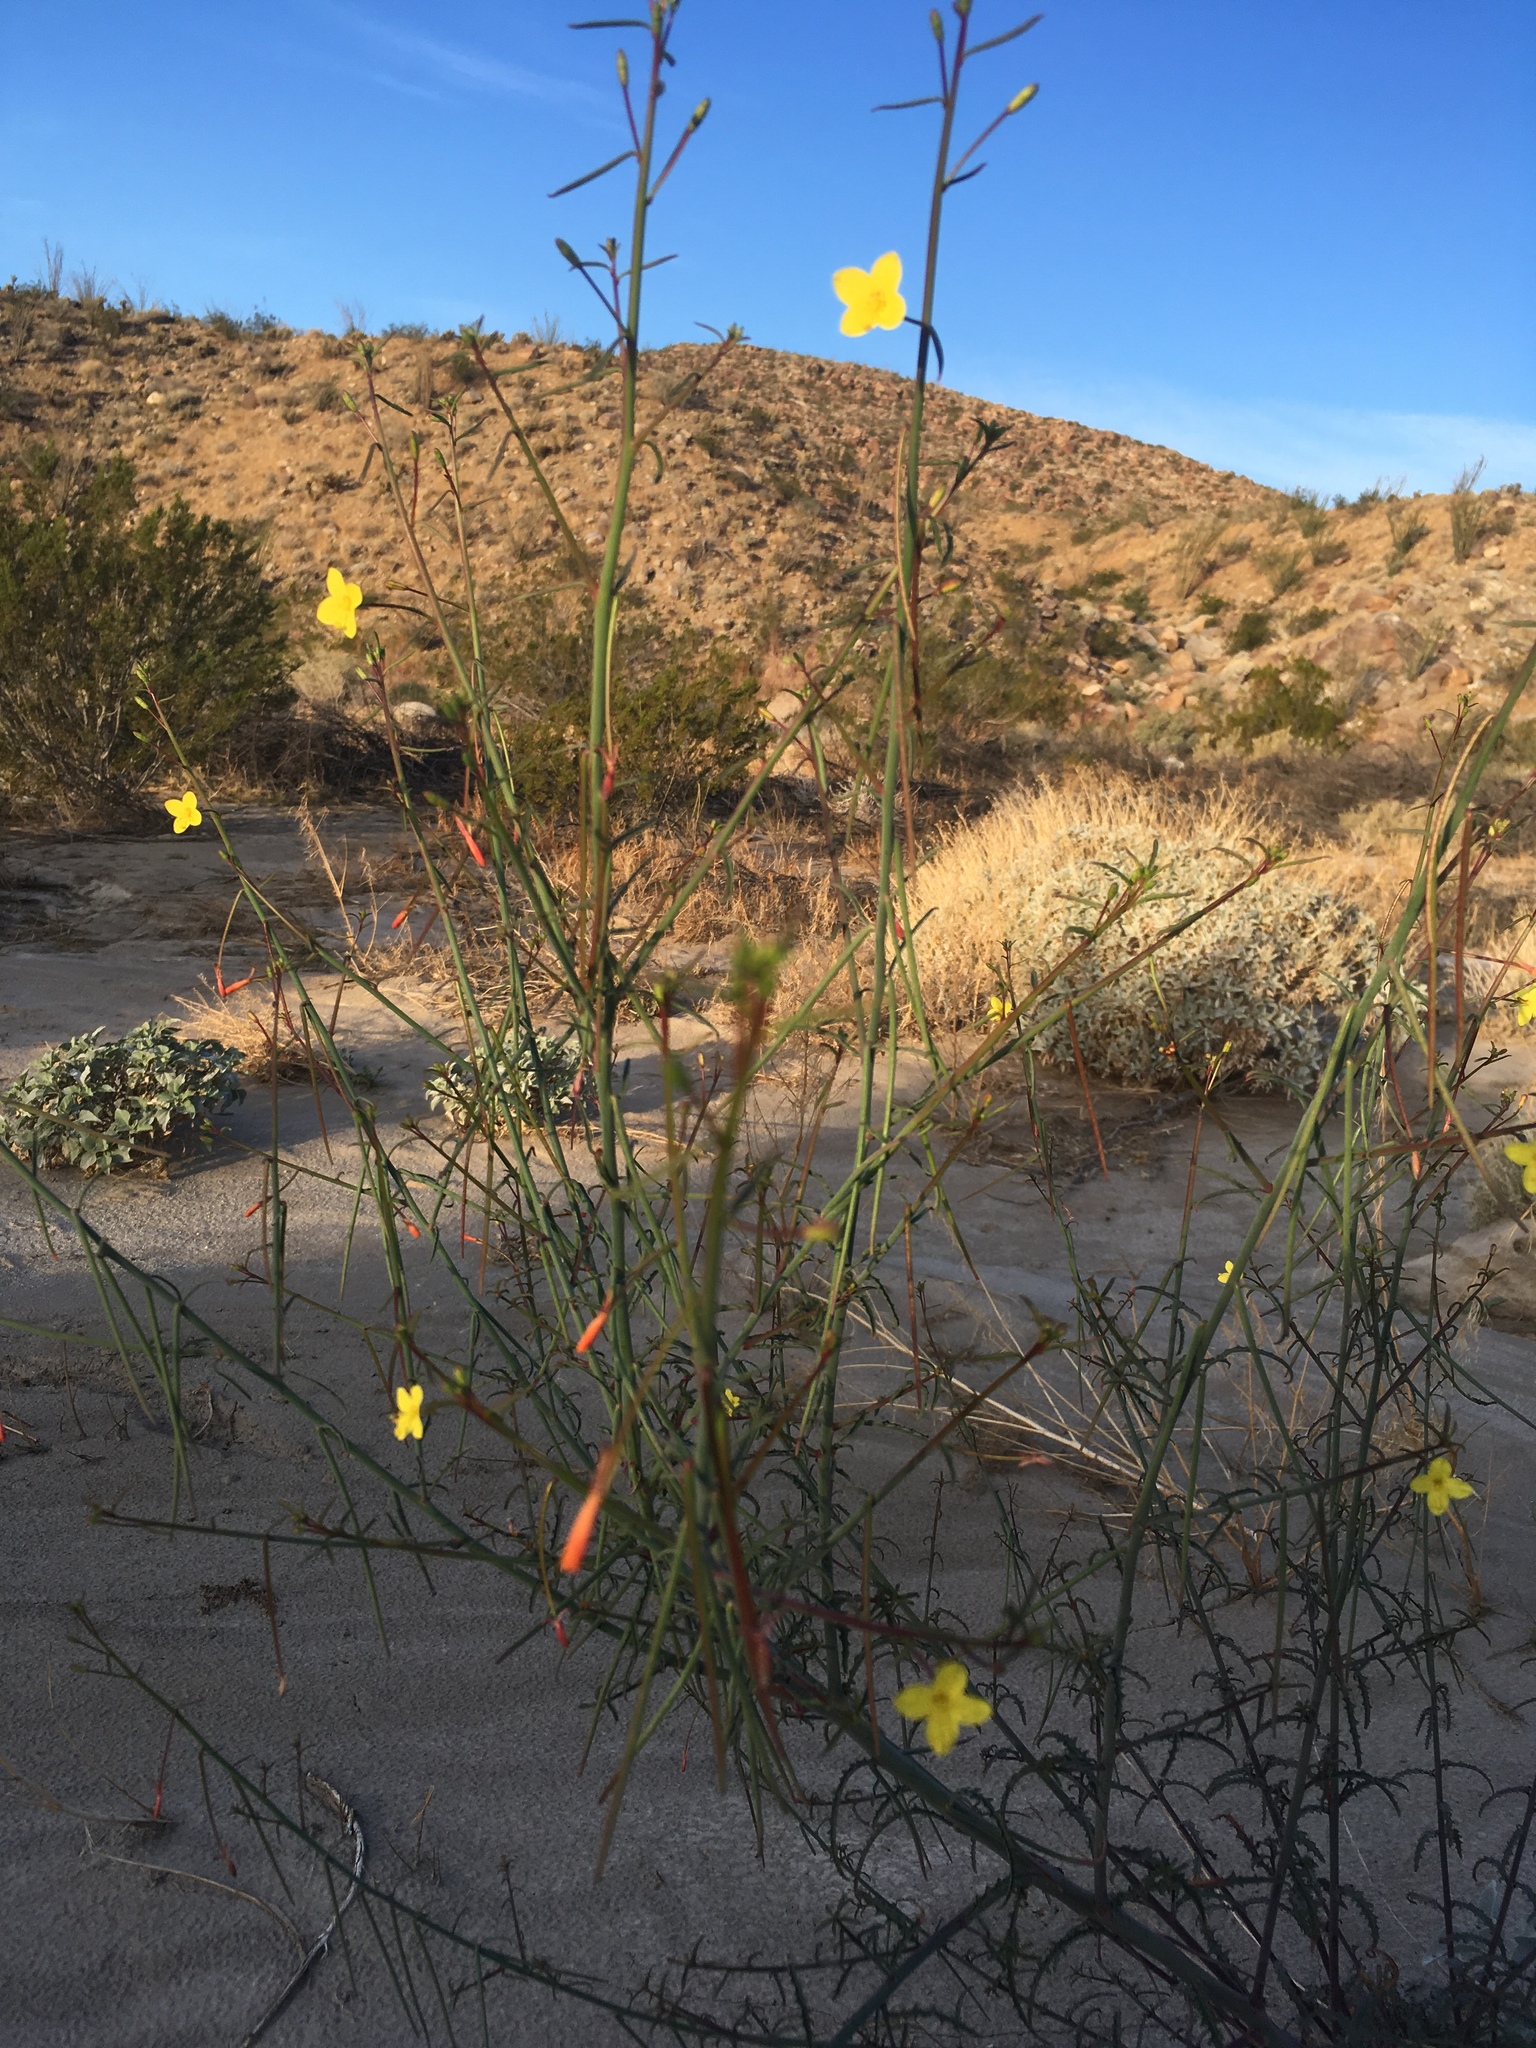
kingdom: Plantae
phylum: Tracheophyta
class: Magnoliopsida
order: Myrtales
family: Onagraceae
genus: Eulobus
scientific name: Eulobus californicus
